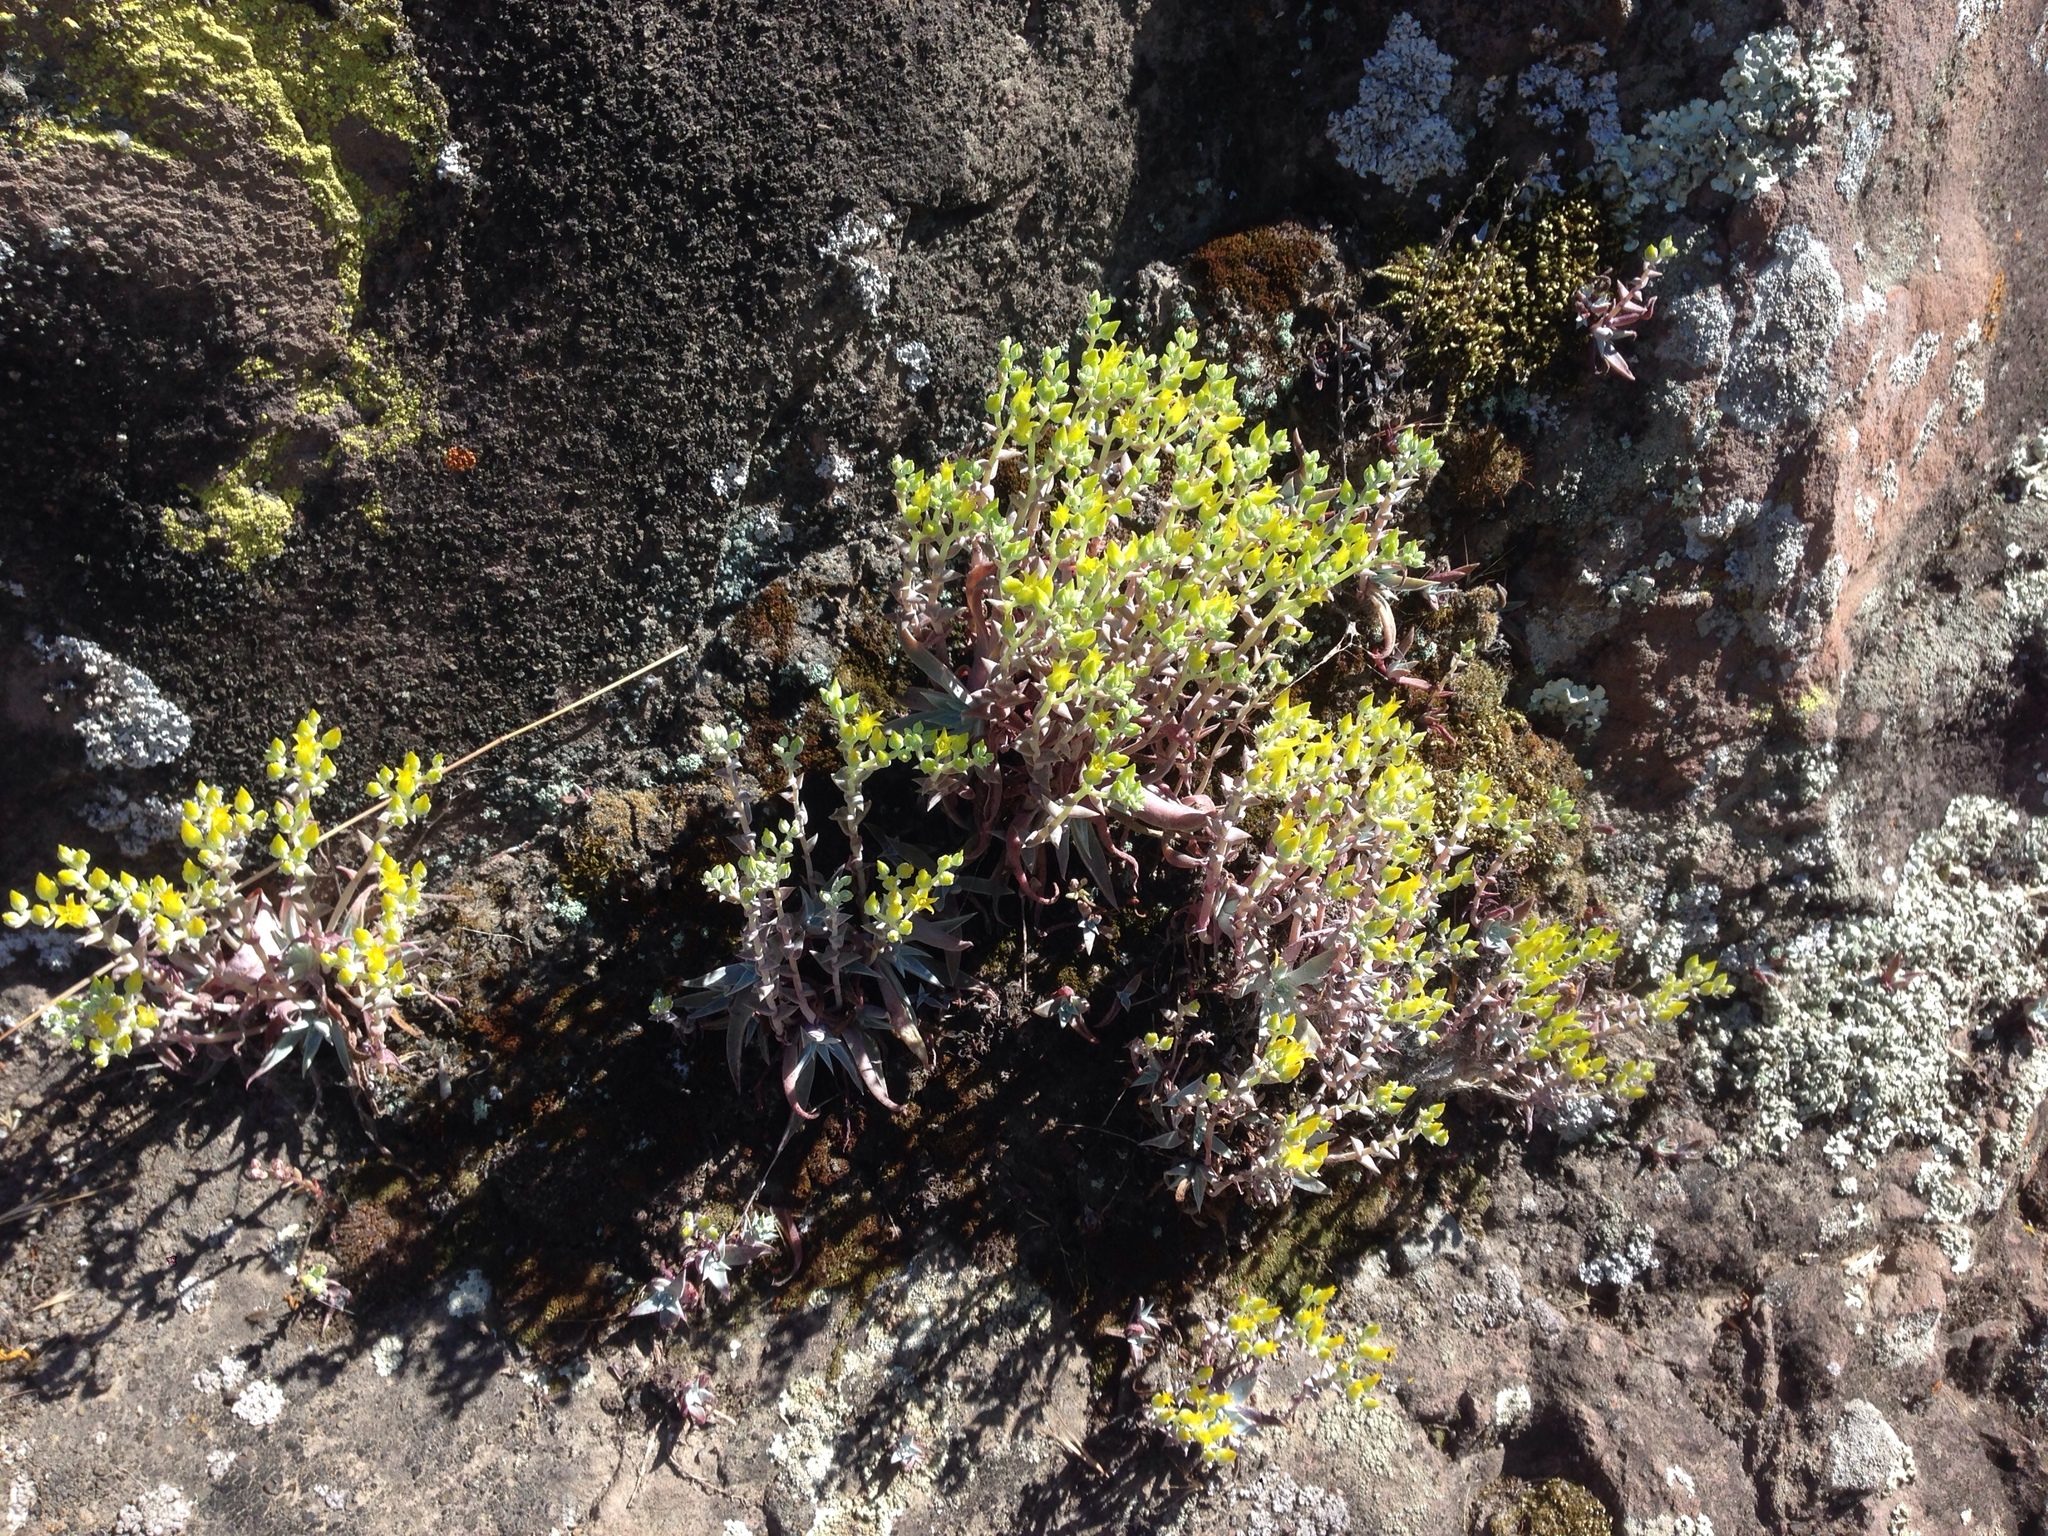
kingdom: Plantae
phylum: Tracheophyta
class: Magnoliopsida
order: Saxifragales
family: Crassulaceae
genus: Dudleya
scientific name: Dudleya verityi
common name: Verity dudleya
